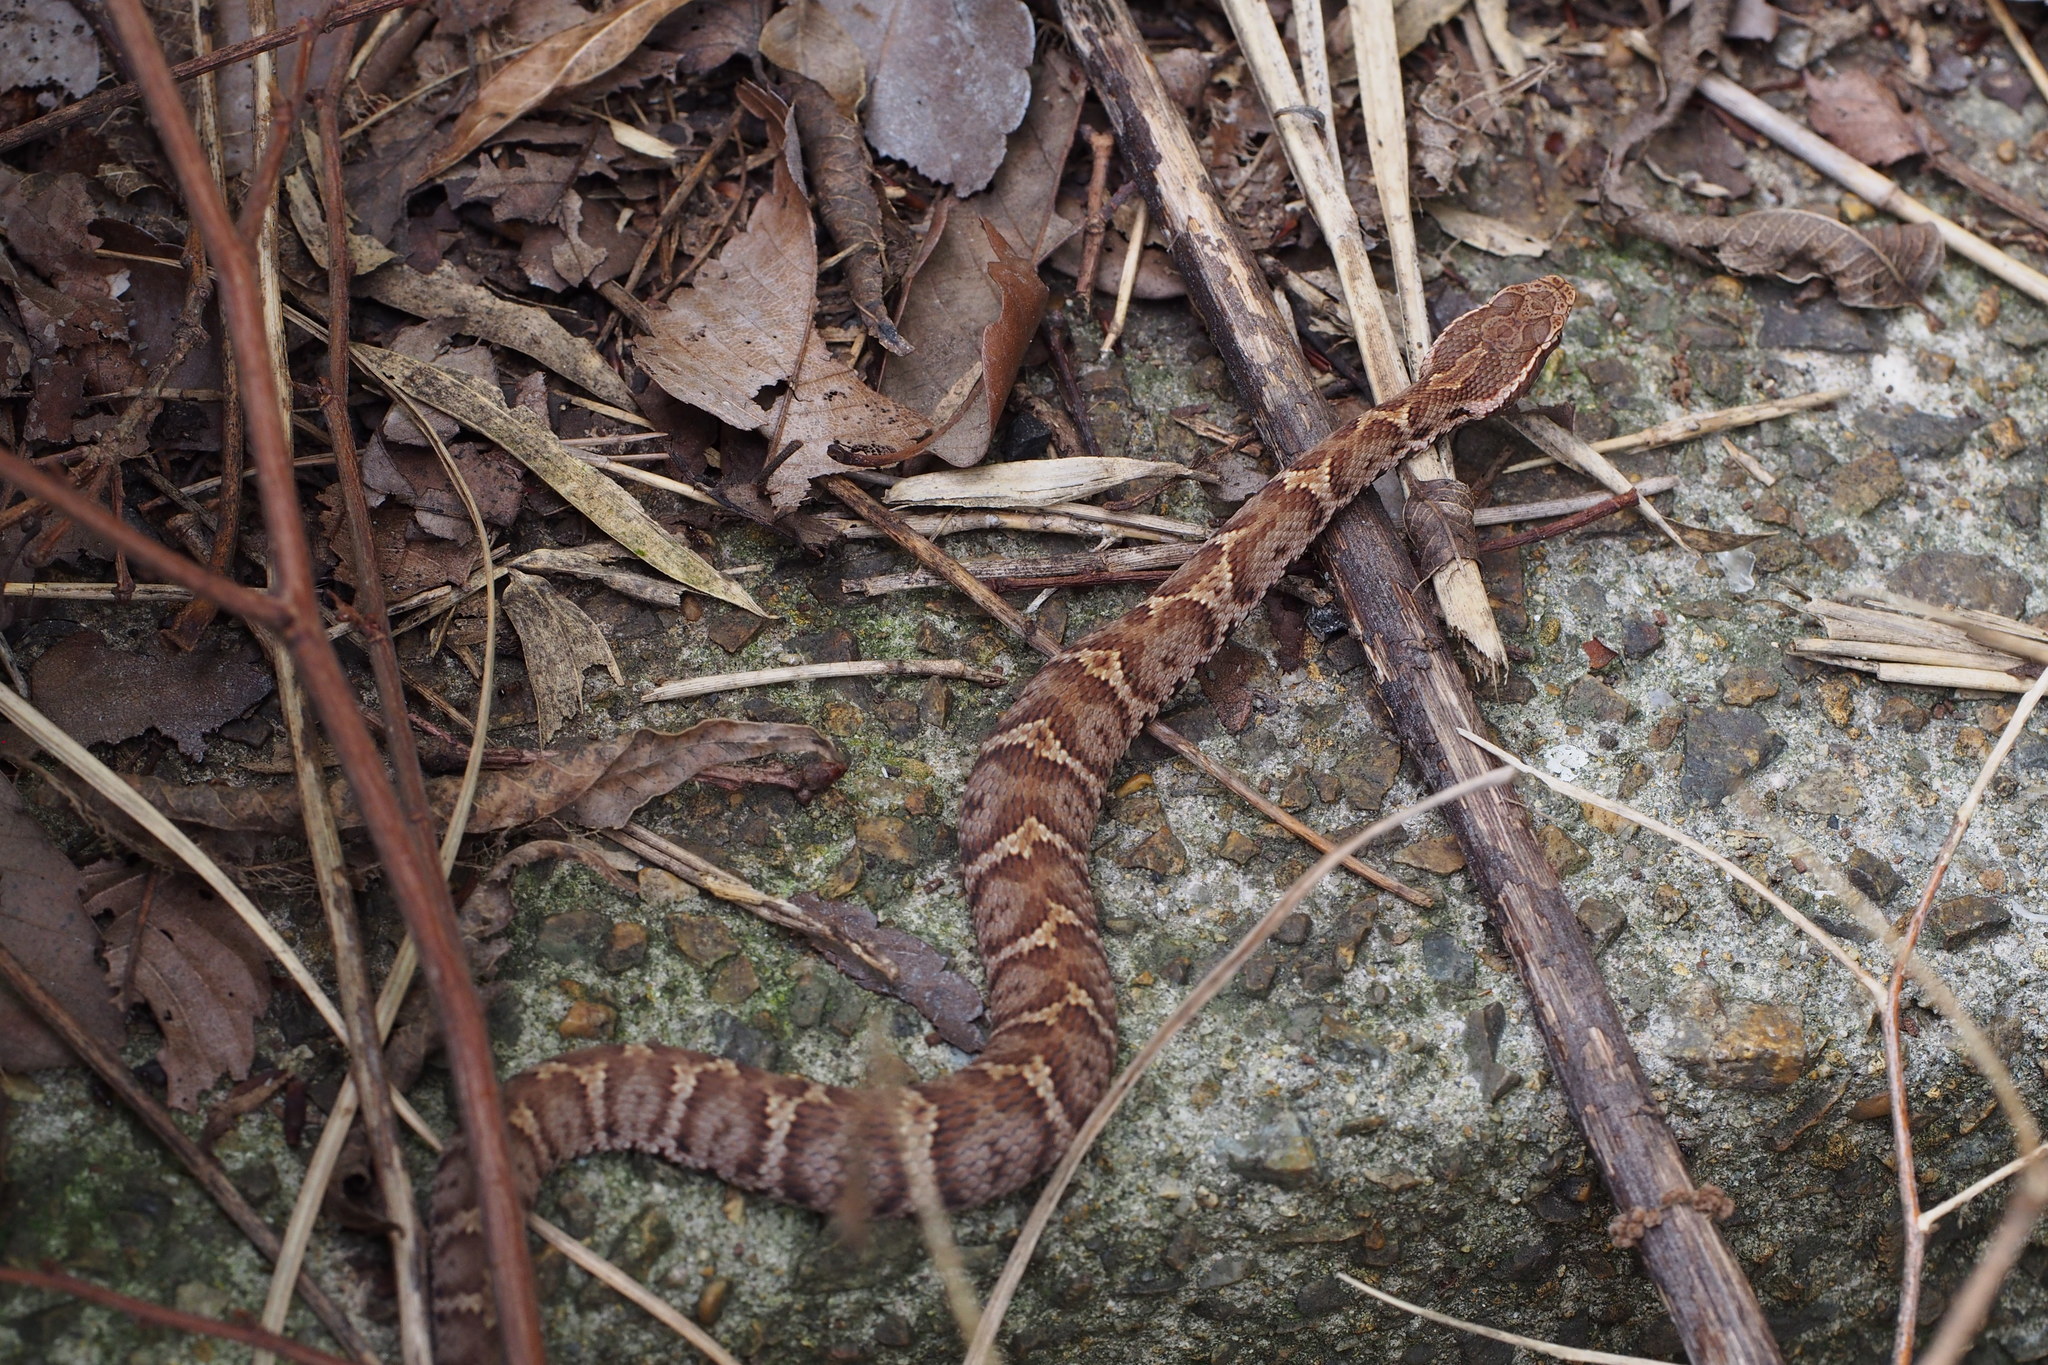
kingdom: Animalia
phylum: Chordata
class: Squamata
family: Viperidae
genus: Gloydius
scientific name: Gloydius blomhoffii
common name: Mamushi
